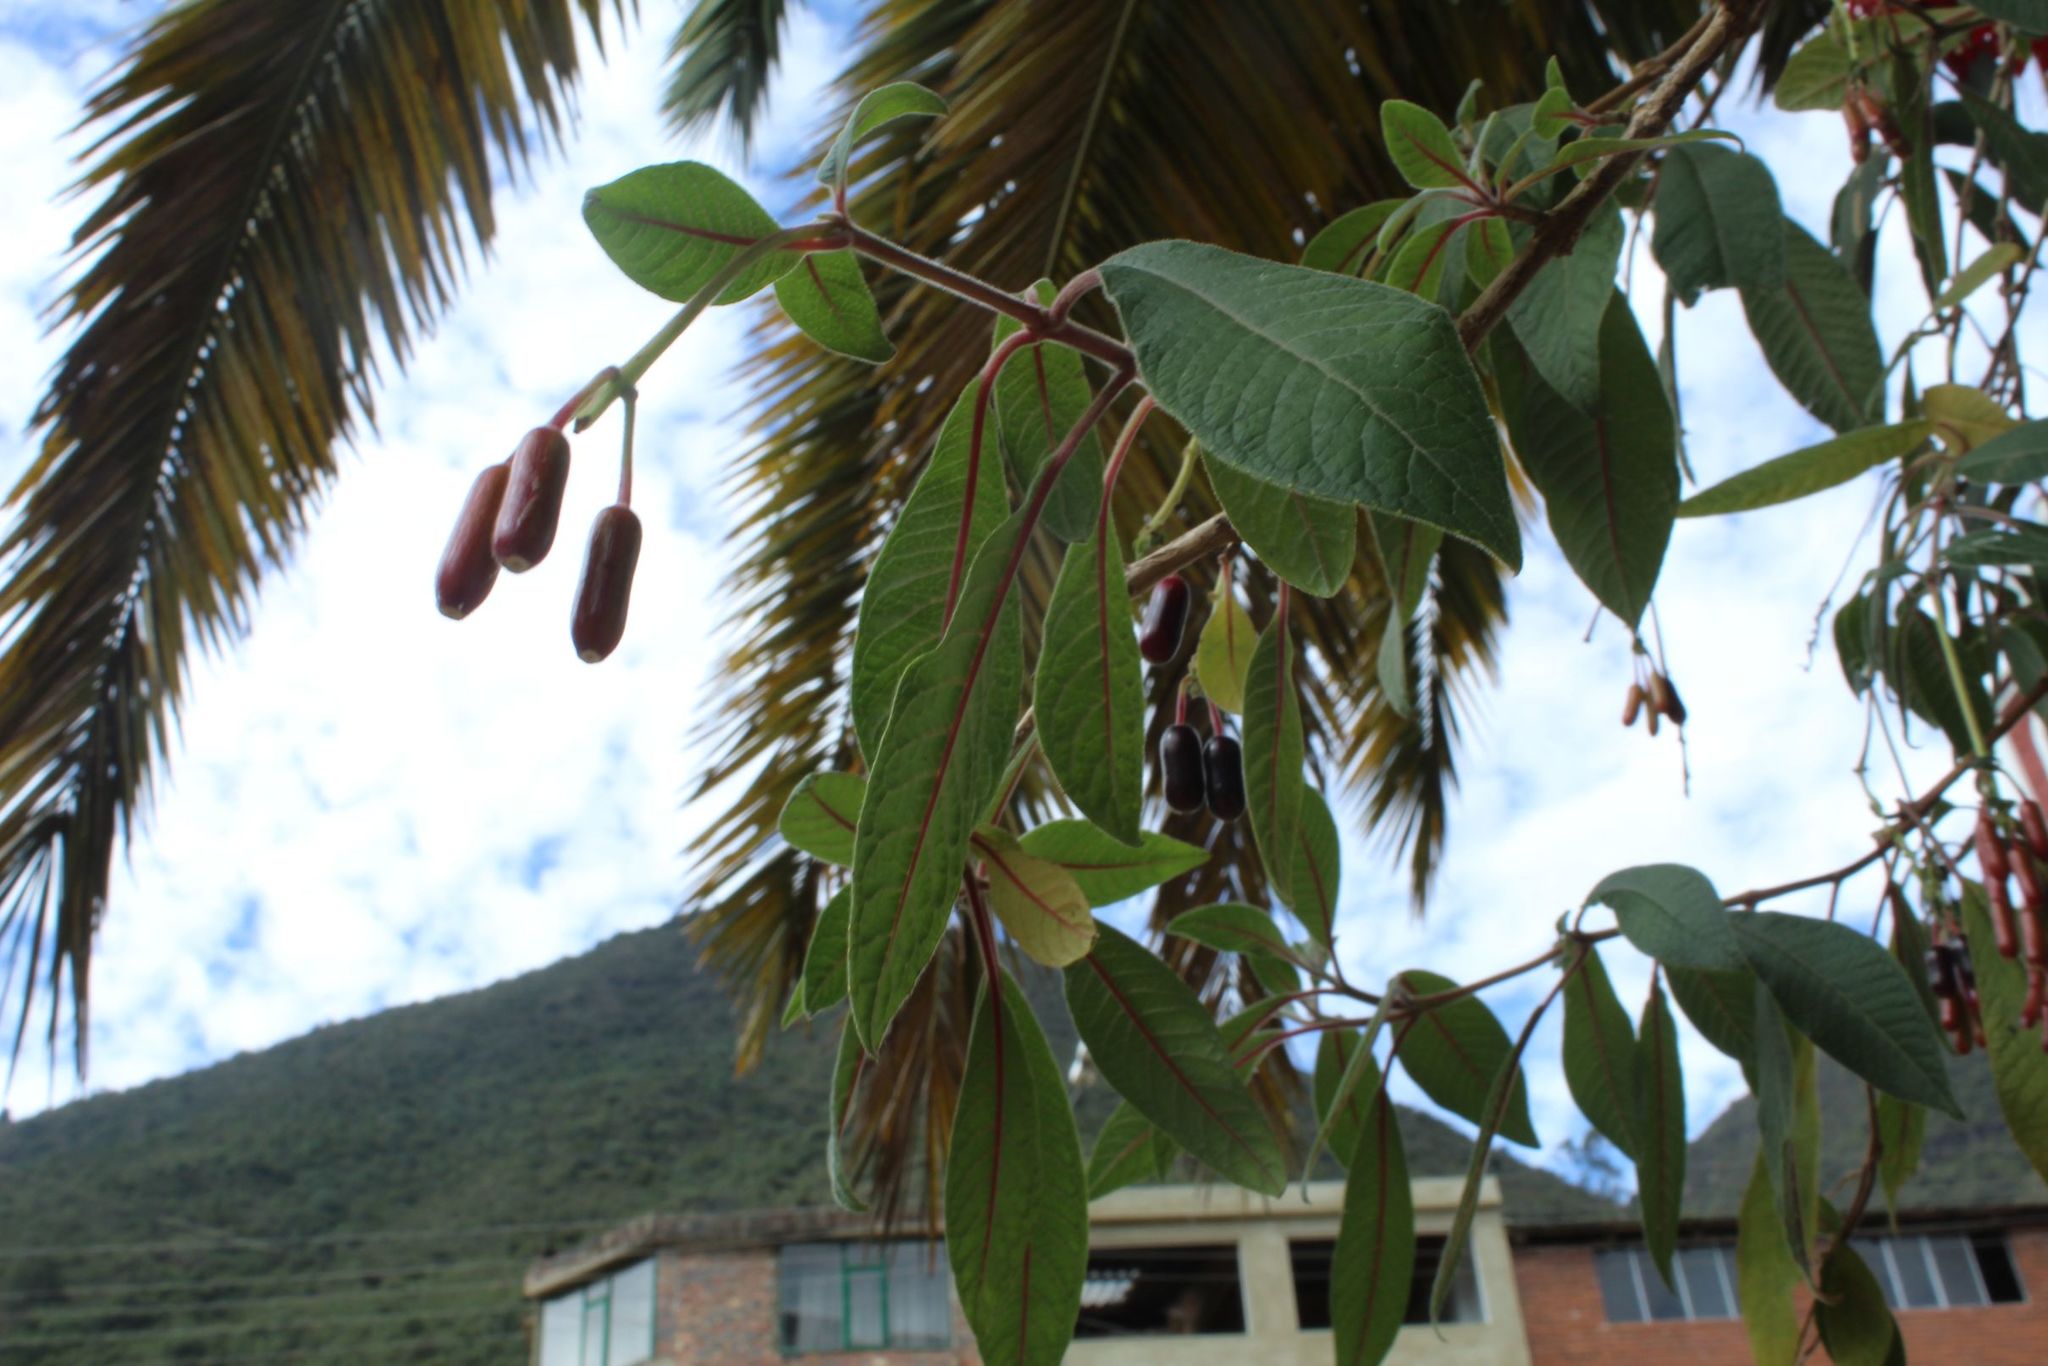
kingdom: Plantae
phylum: Tracheophyta
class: Magnoliopsida
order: Myrtales
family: Onagraceae
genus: Fuchsia
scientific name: Fuchsia boliviana
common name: Bolivian fuchsia
